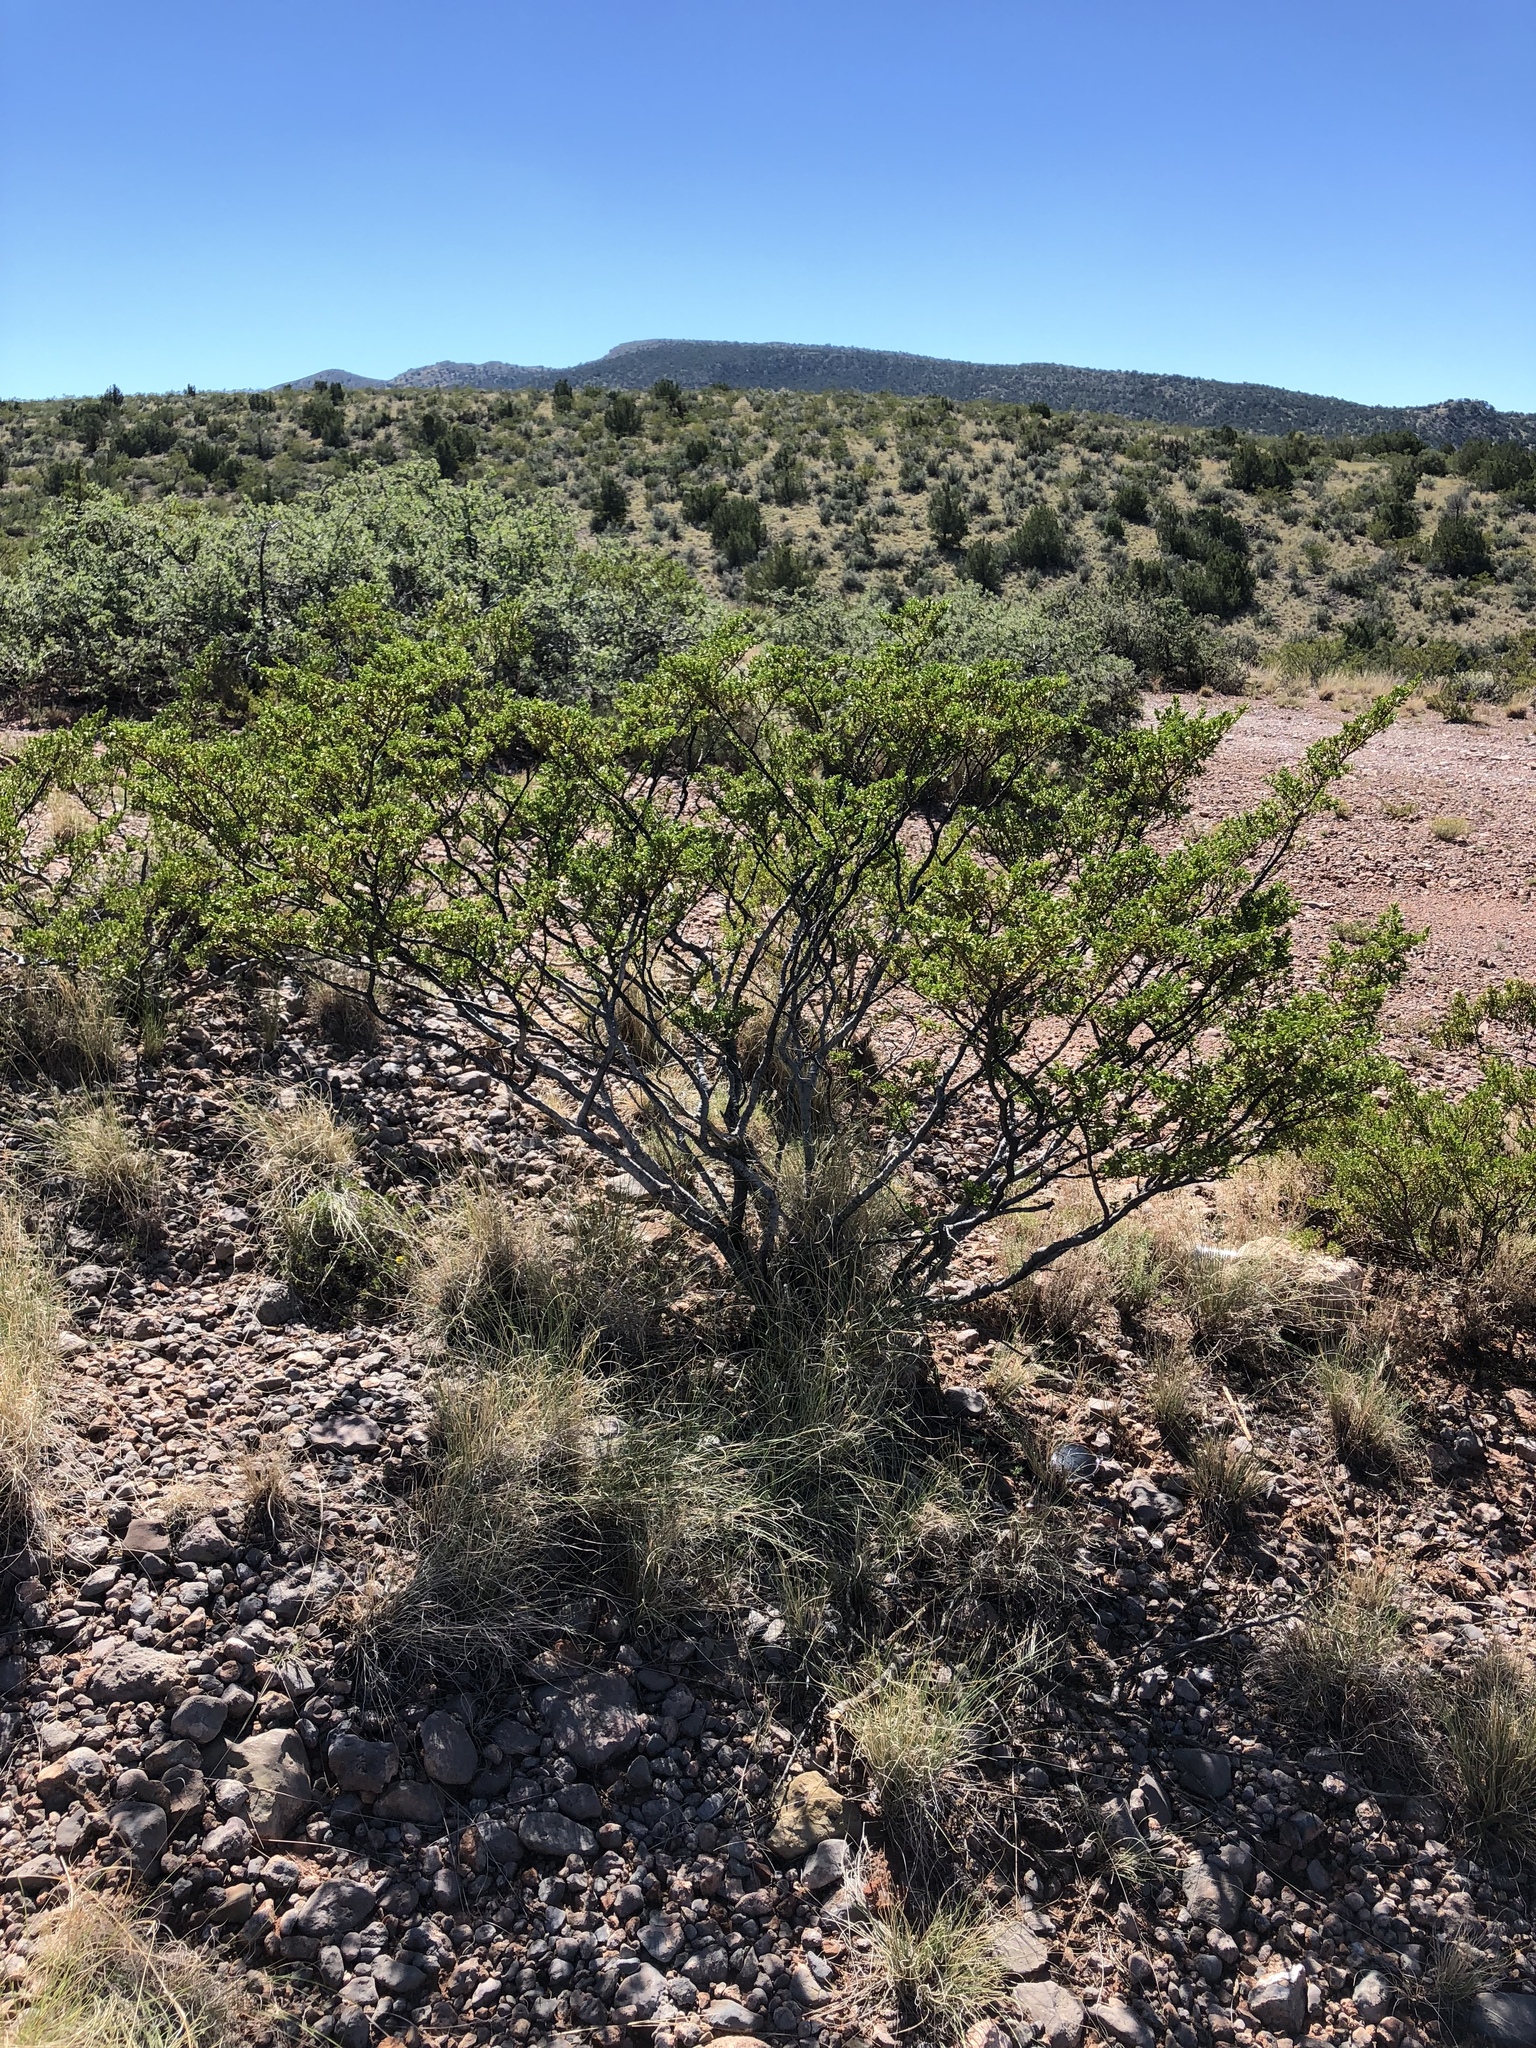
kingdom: Plantae
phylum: Tracheophyta
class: Magnoliopsida
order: Zygophyllales
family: Zygophyllaceae
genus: Larrea
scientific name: Larrea tridentata
